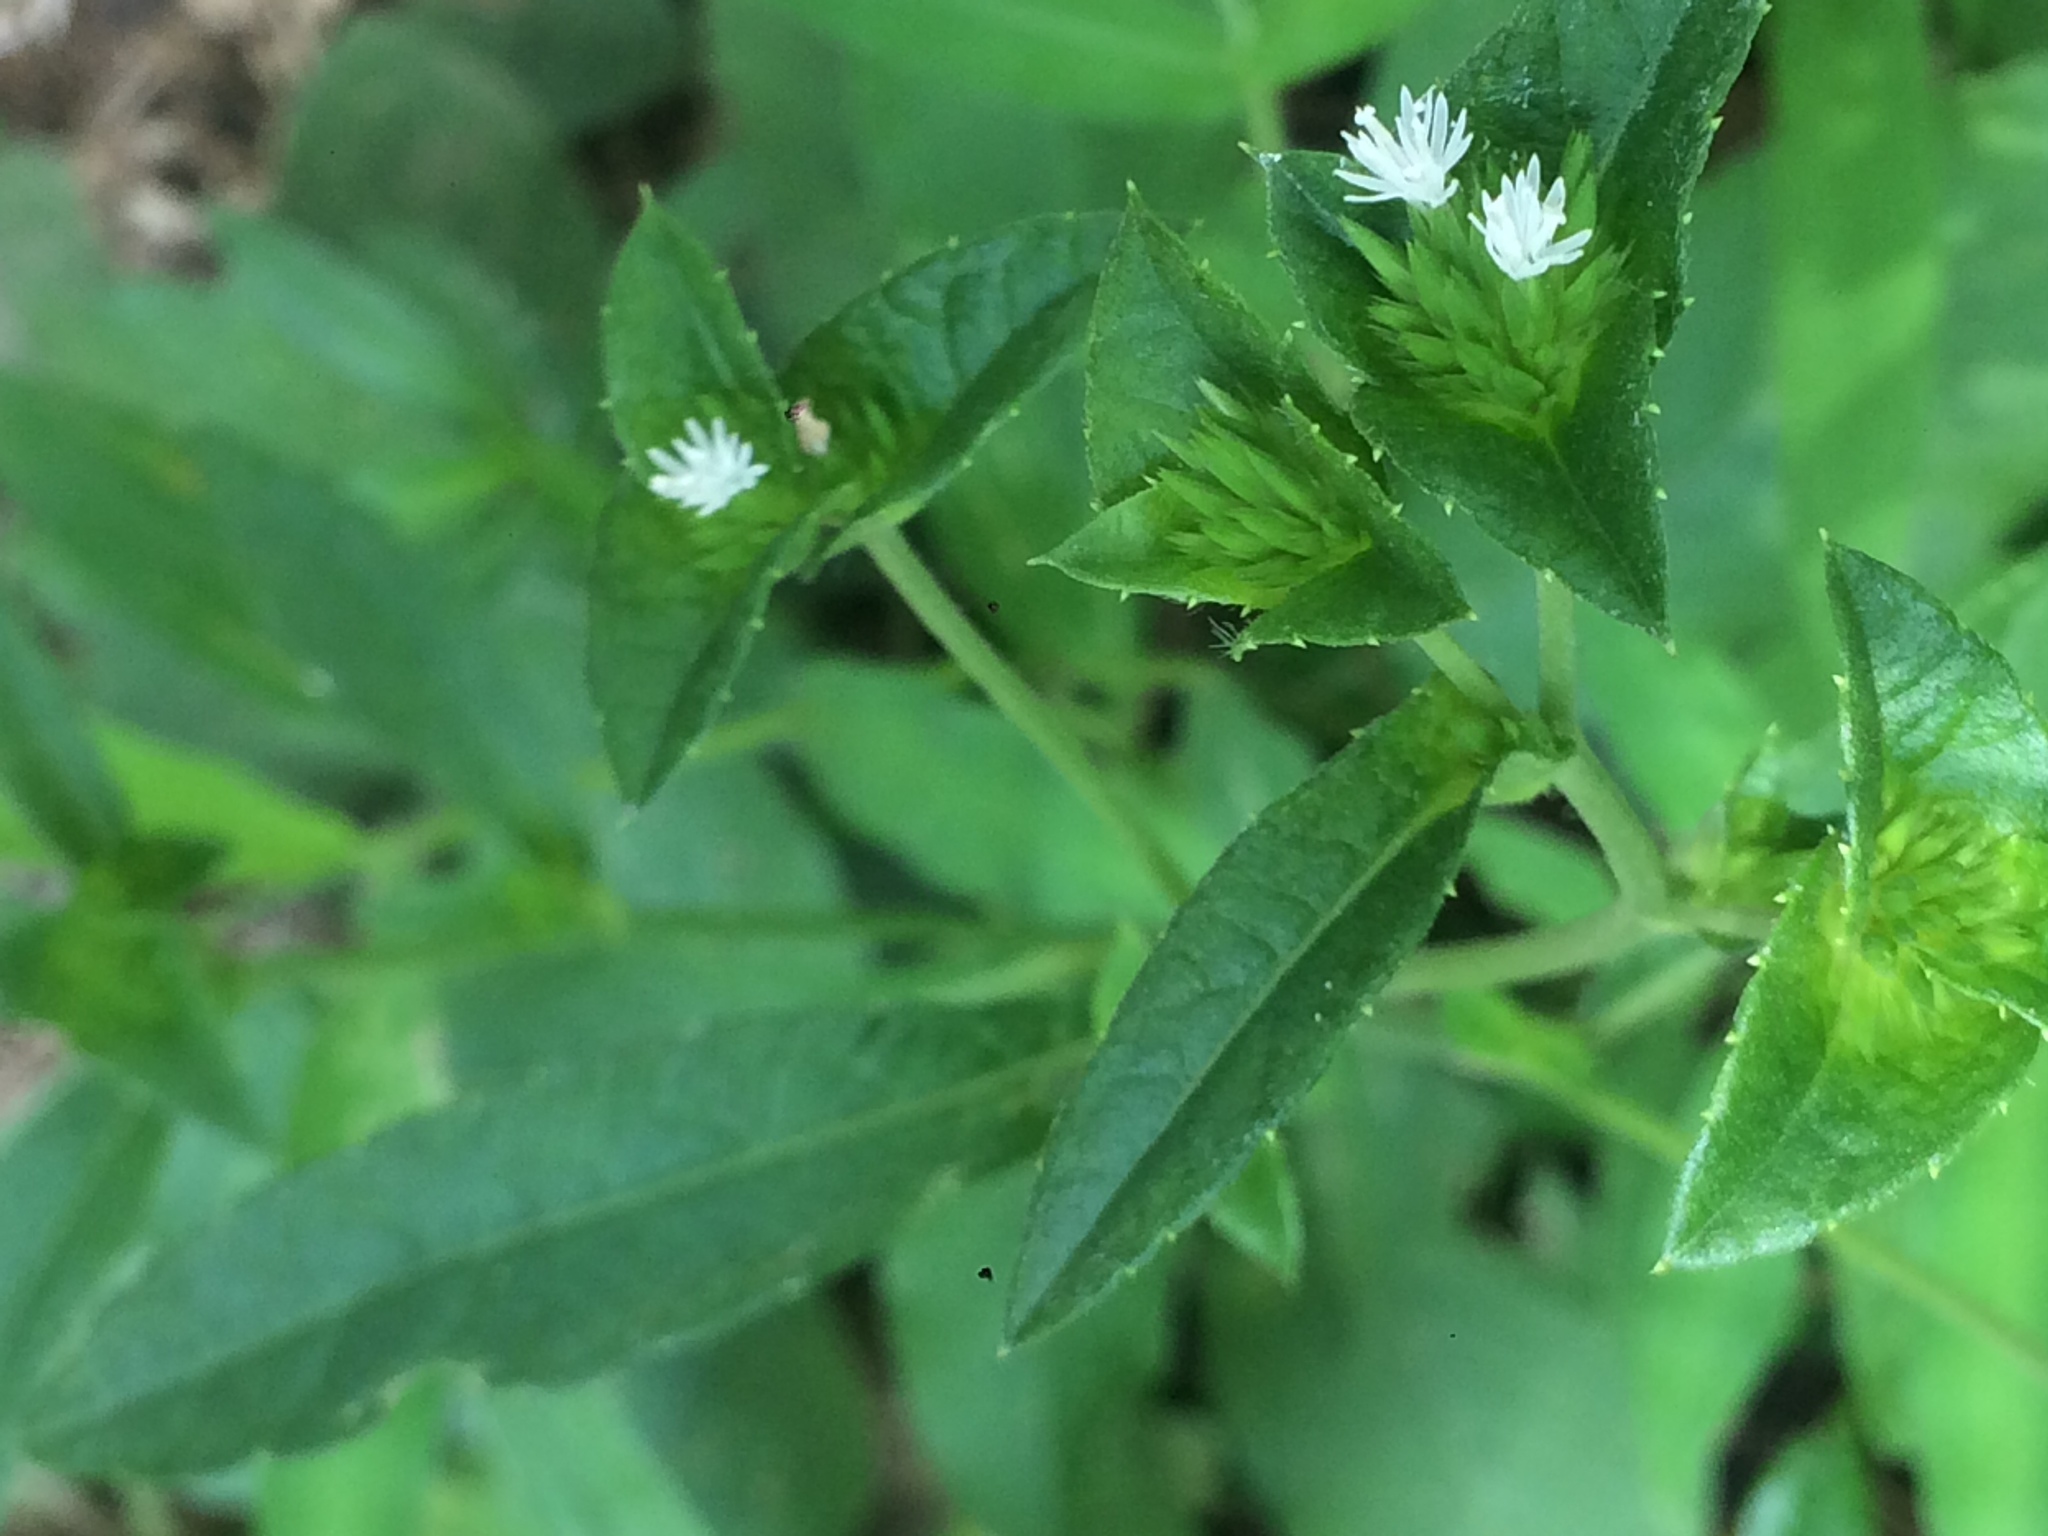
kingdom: Plantae
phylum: Tracheophyta
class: Magnoliopsida
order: Asterales
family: Asteraceae
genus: Elephantopus
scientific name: Elephantopus mollis
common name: Soft elephantsfoot
